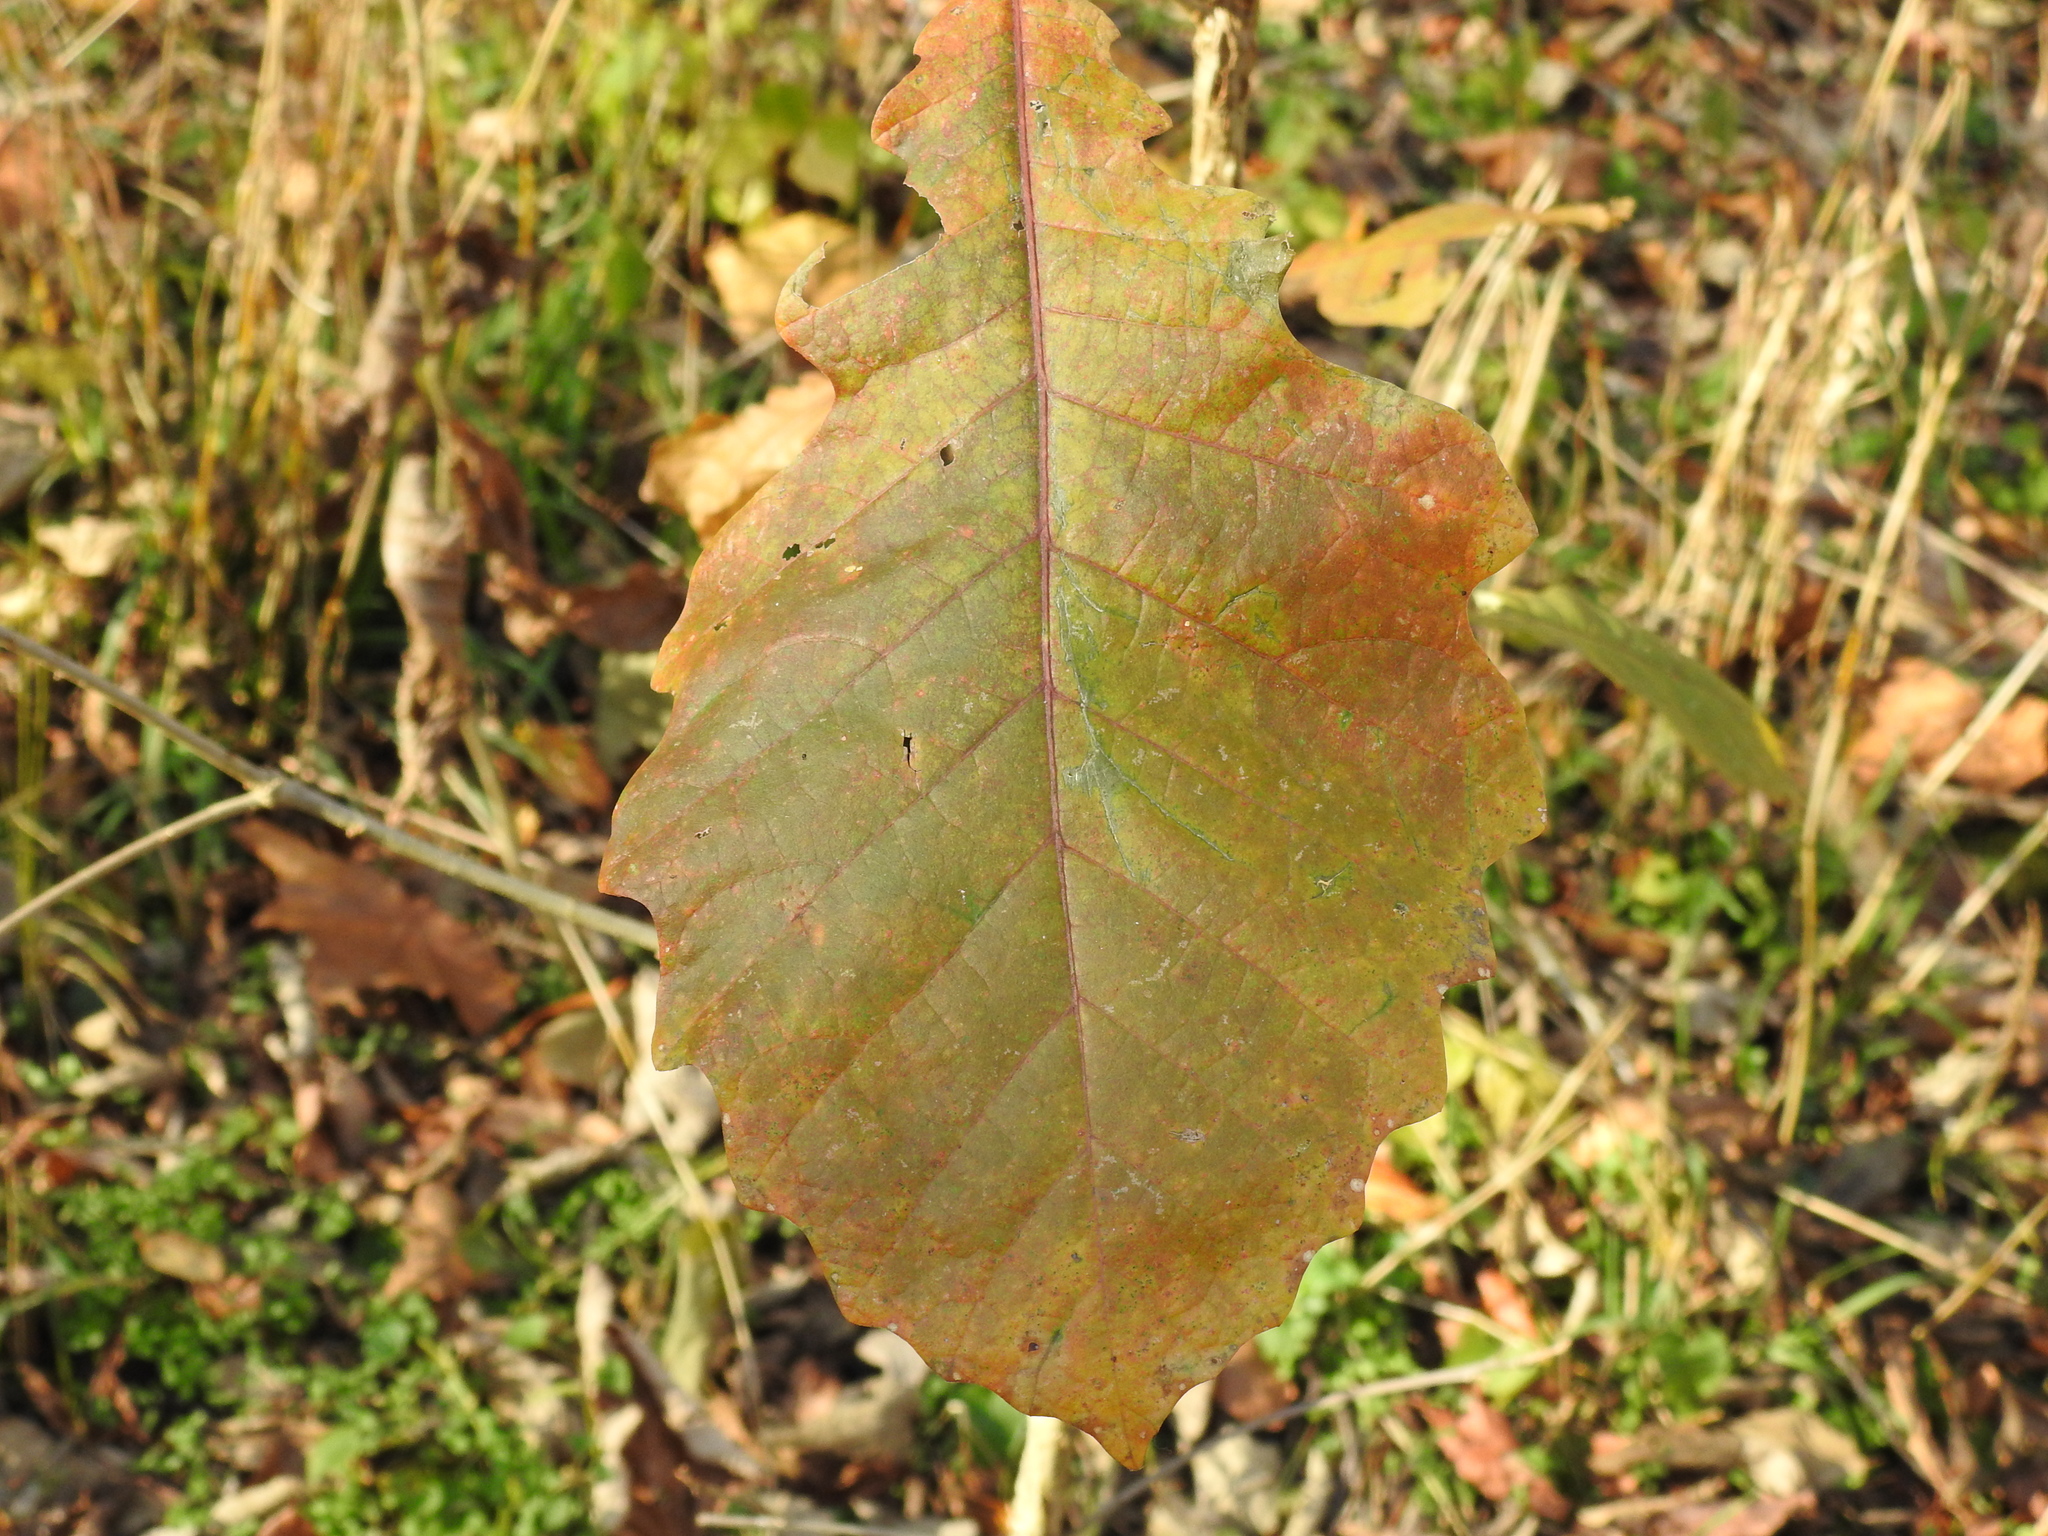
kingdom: Plantae
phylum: Tracheophyta
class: Magnoliopsida
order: Fagales
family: Fagaceae
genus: Quercus
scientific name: Quercus bicolor
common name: Swamp white oak
